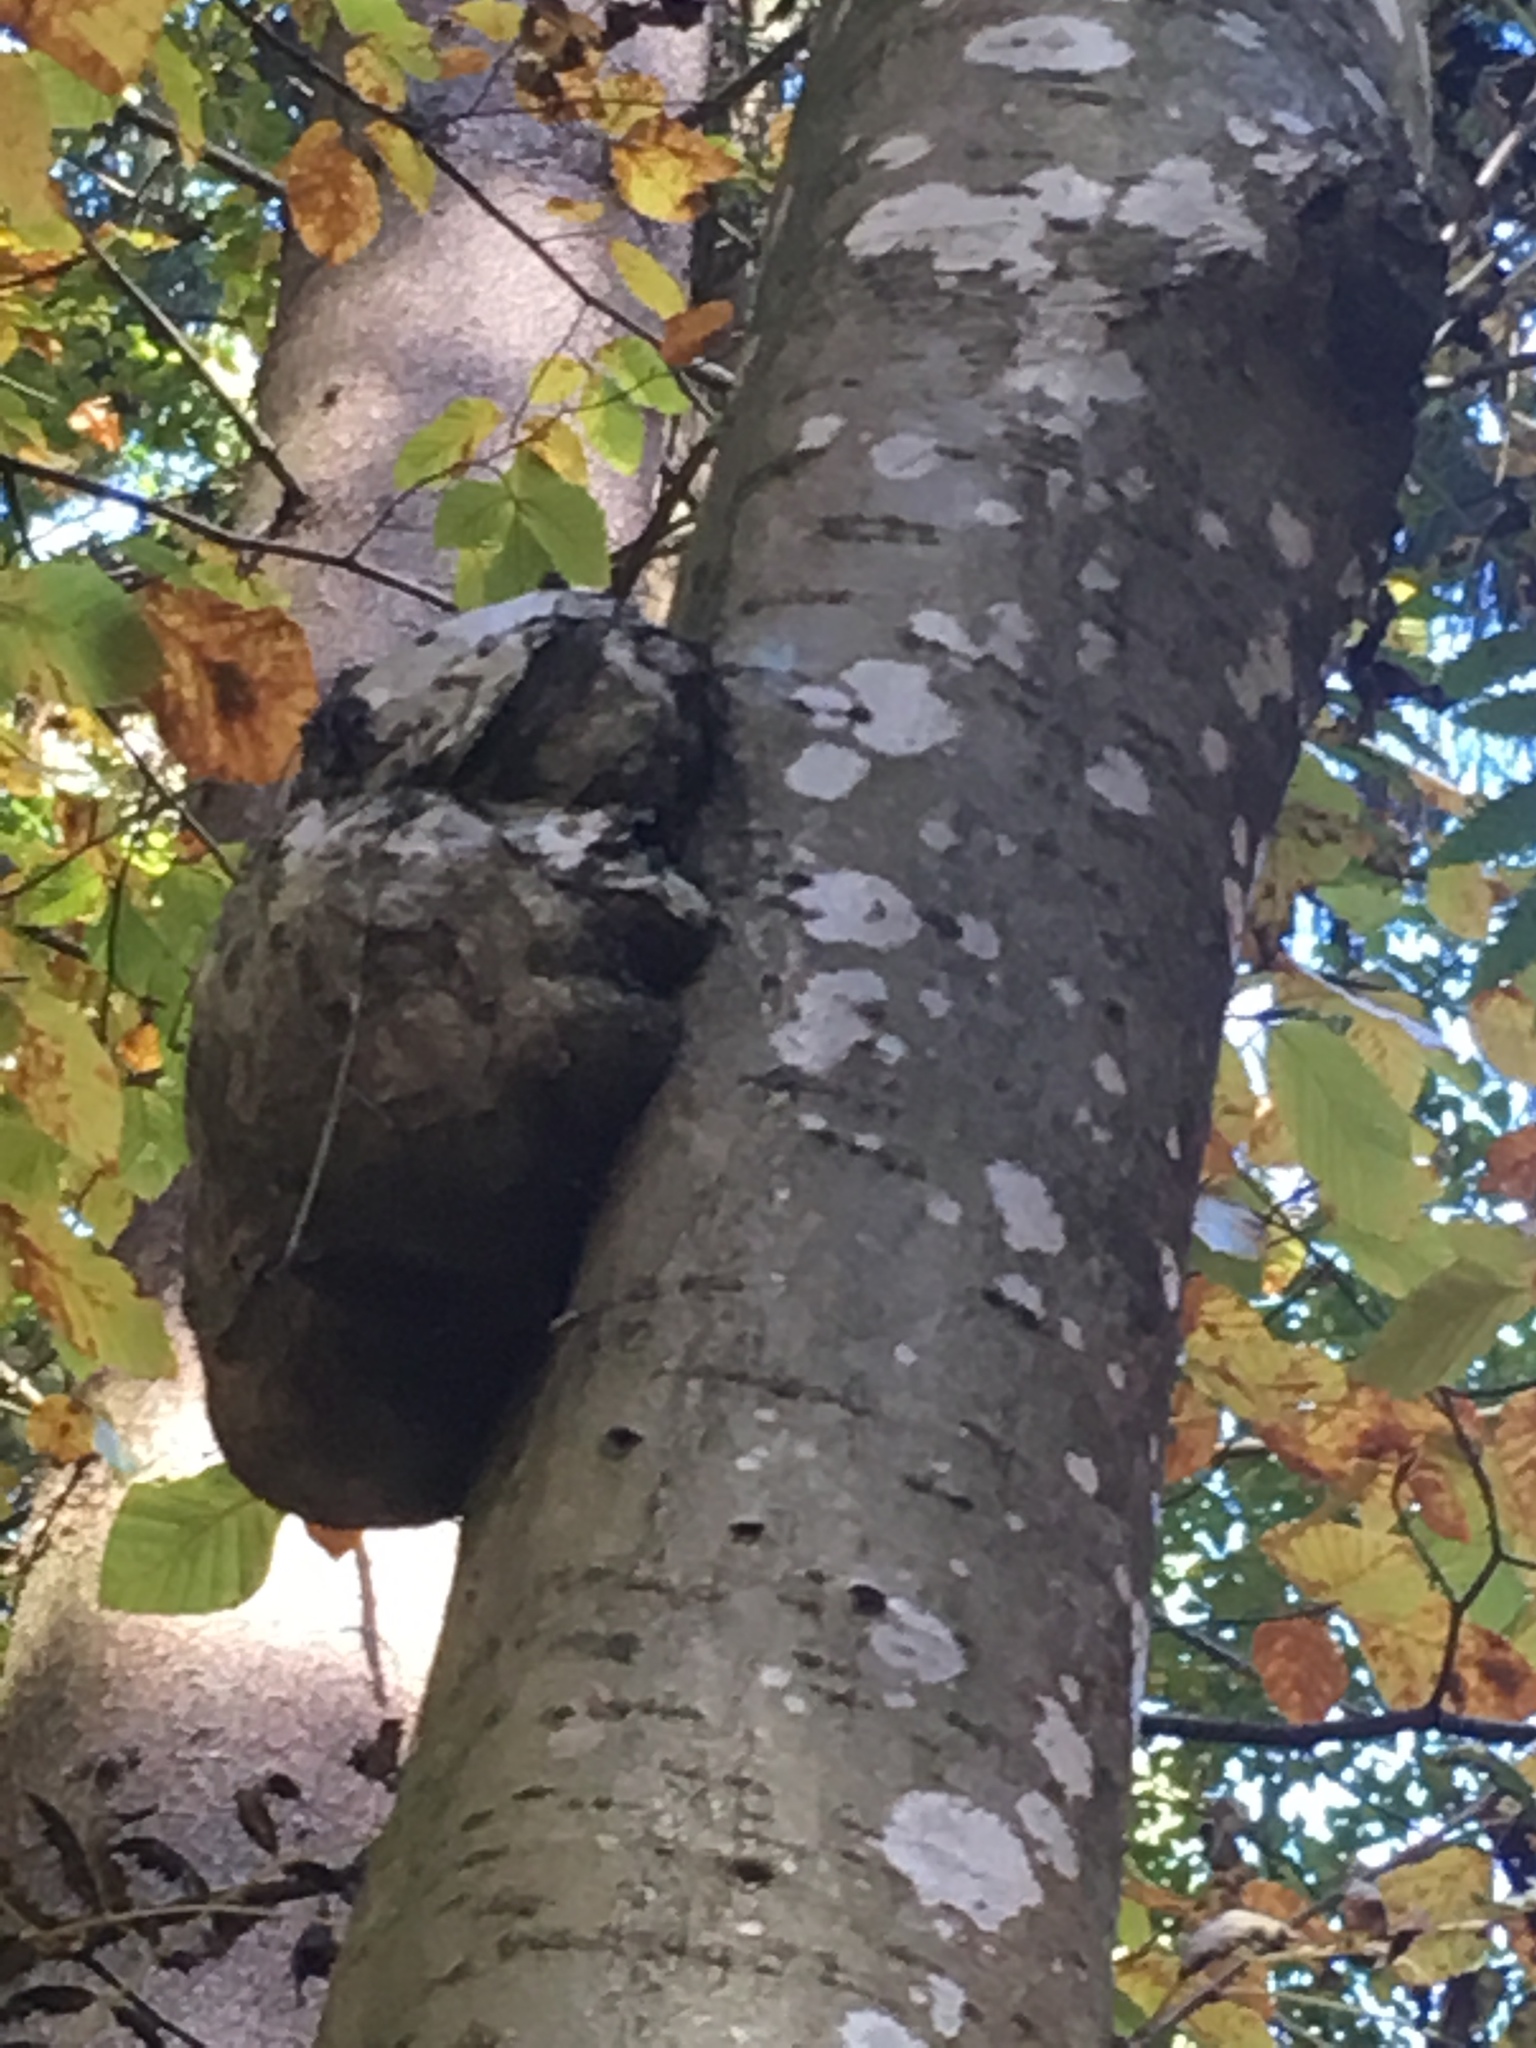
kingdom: Plantae
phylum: Tracheophyta
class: Magnoliopsida
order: Fagales
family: Fagaceae
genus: Fagus
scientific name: Fagus sylvatica
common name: Beech
